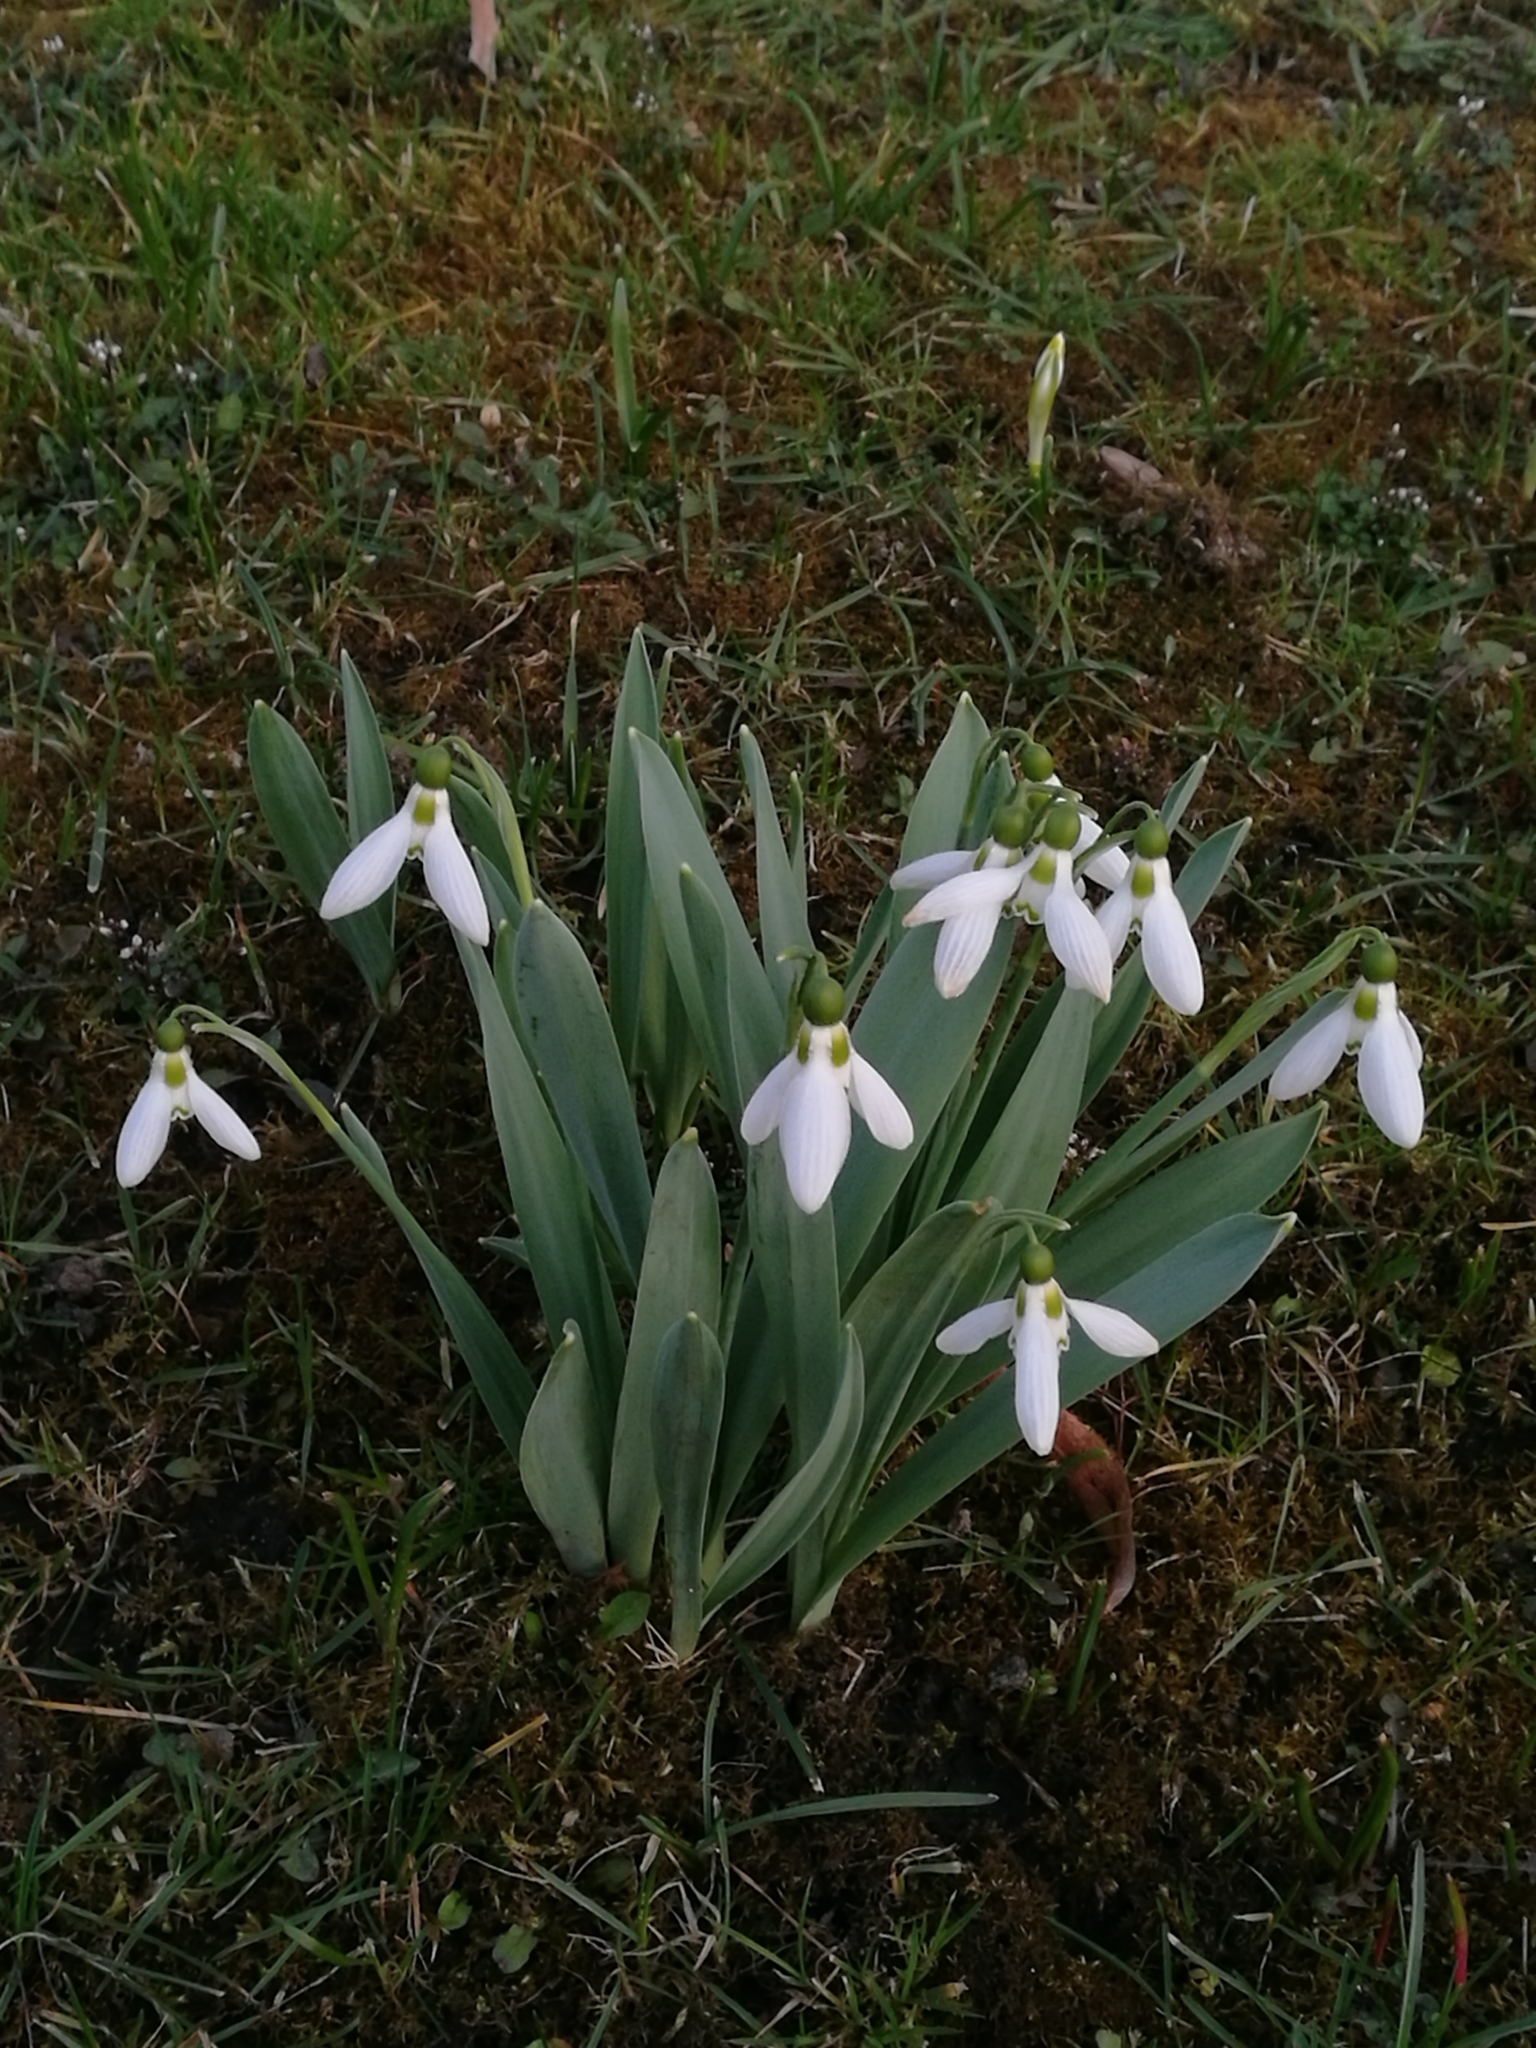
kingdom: Plantae
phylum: Tracheophyta
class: Liliopsida
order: Asparagales
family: Amaryllidaceae
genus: Galanthus
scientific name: Galanthus elwesii
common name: Greater snowdrop
